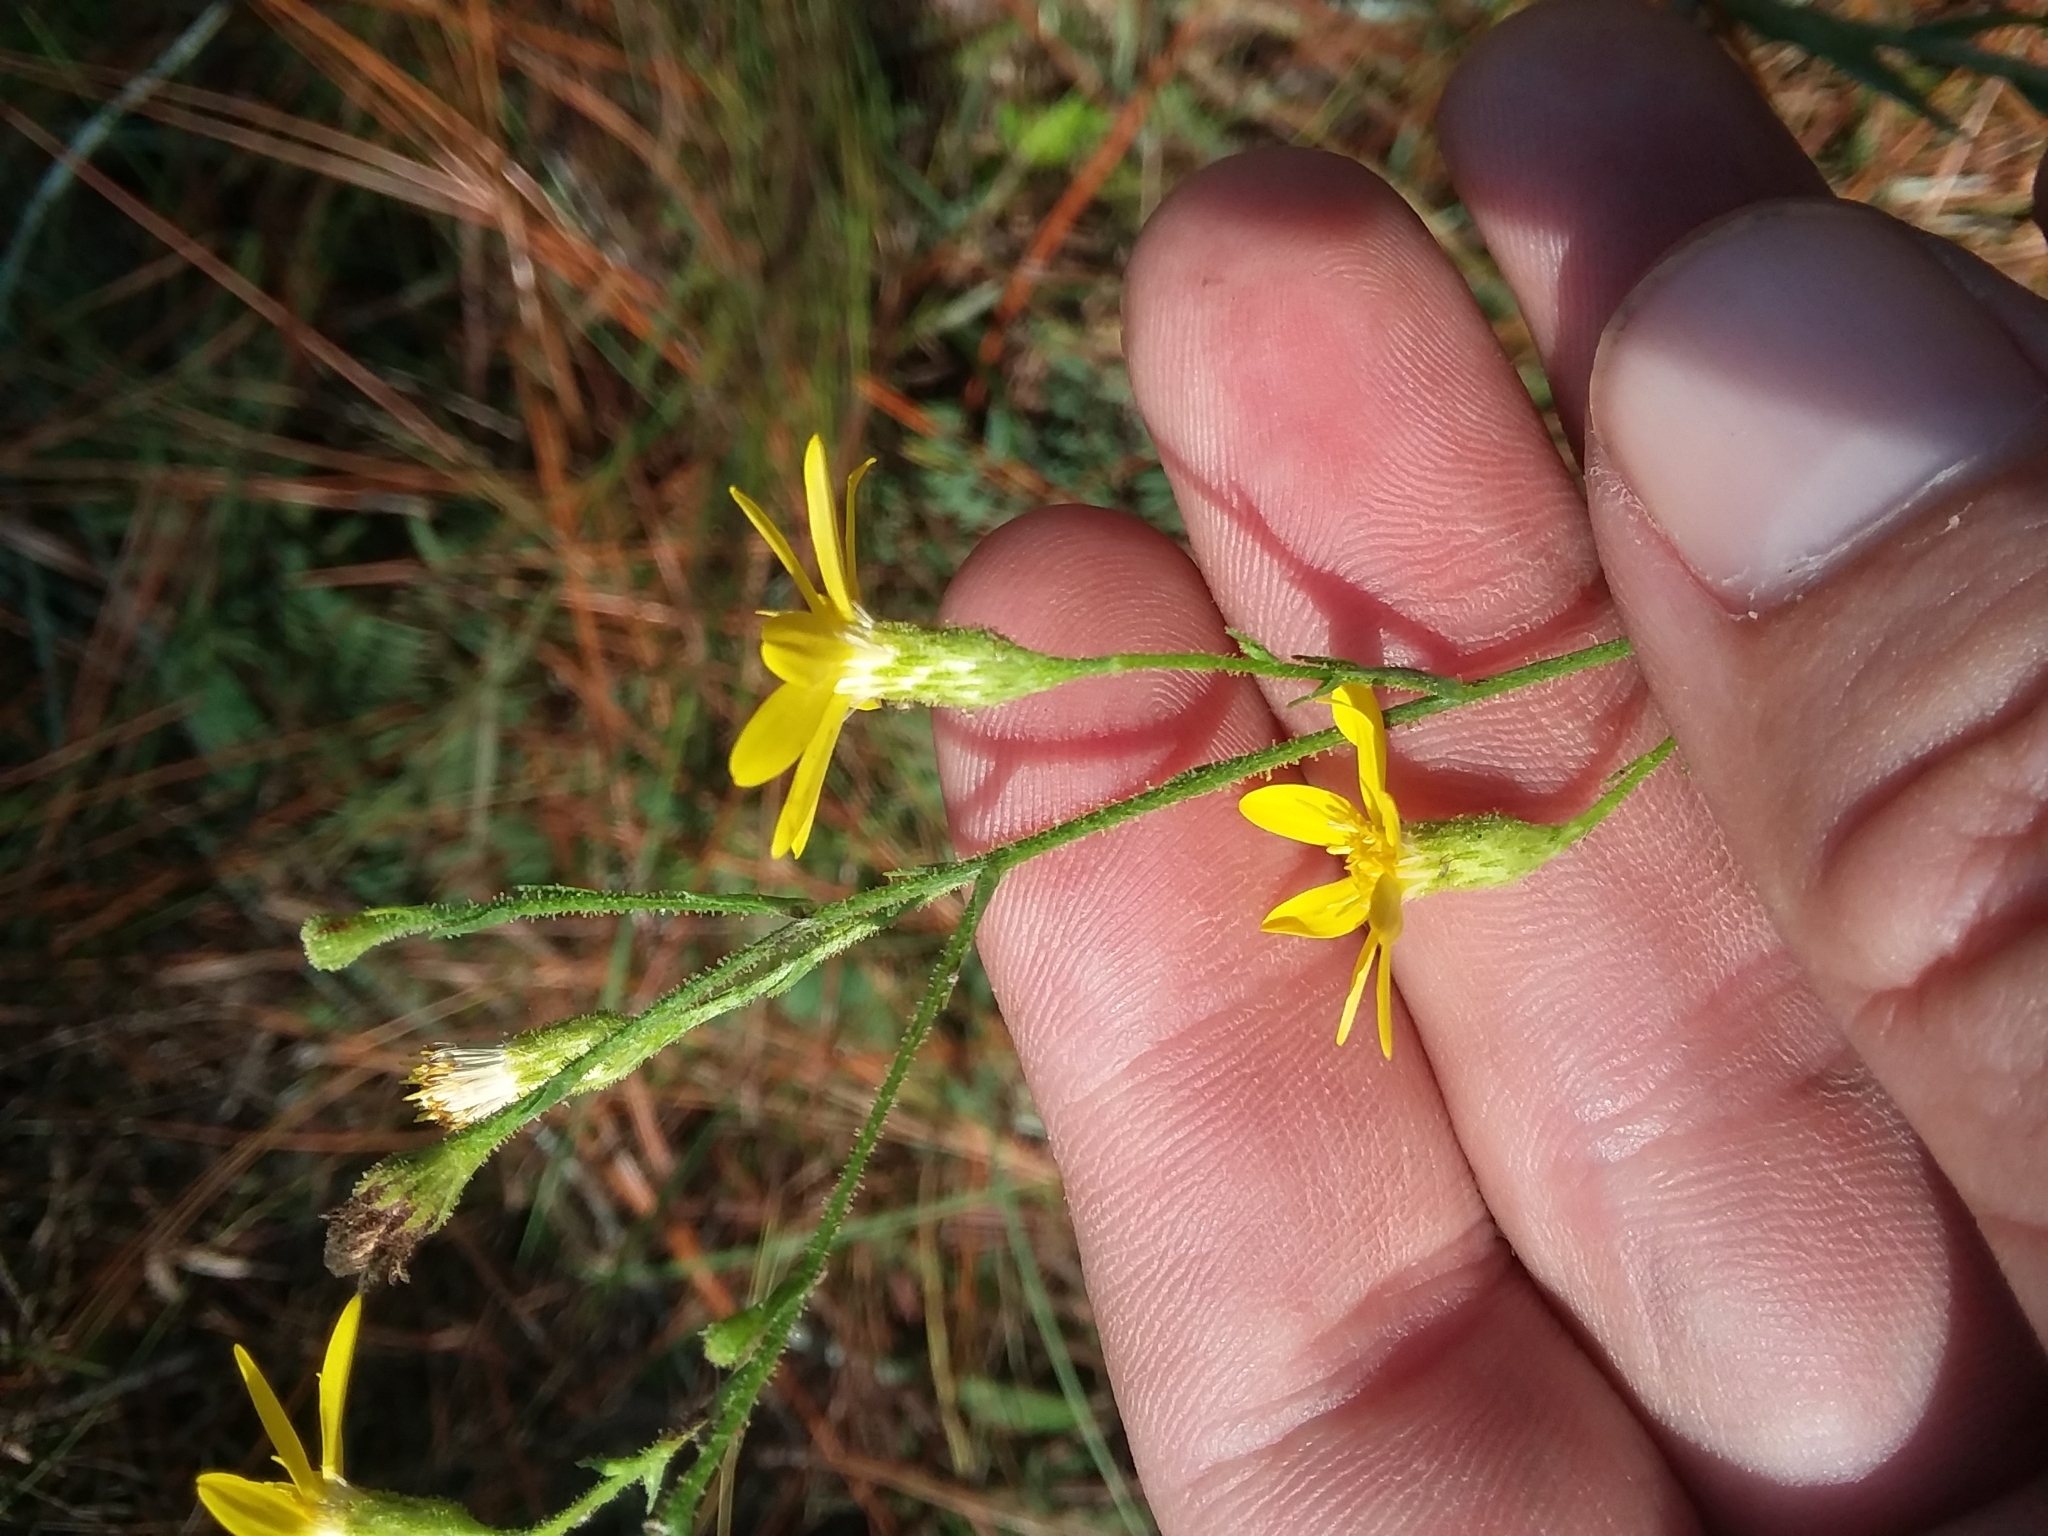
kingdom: Plantae
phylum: Tracheophyta
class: Magnoliopsida
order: Asterales
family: Asteraceae
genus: Pityopsis
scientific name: Pityopsis aspera
